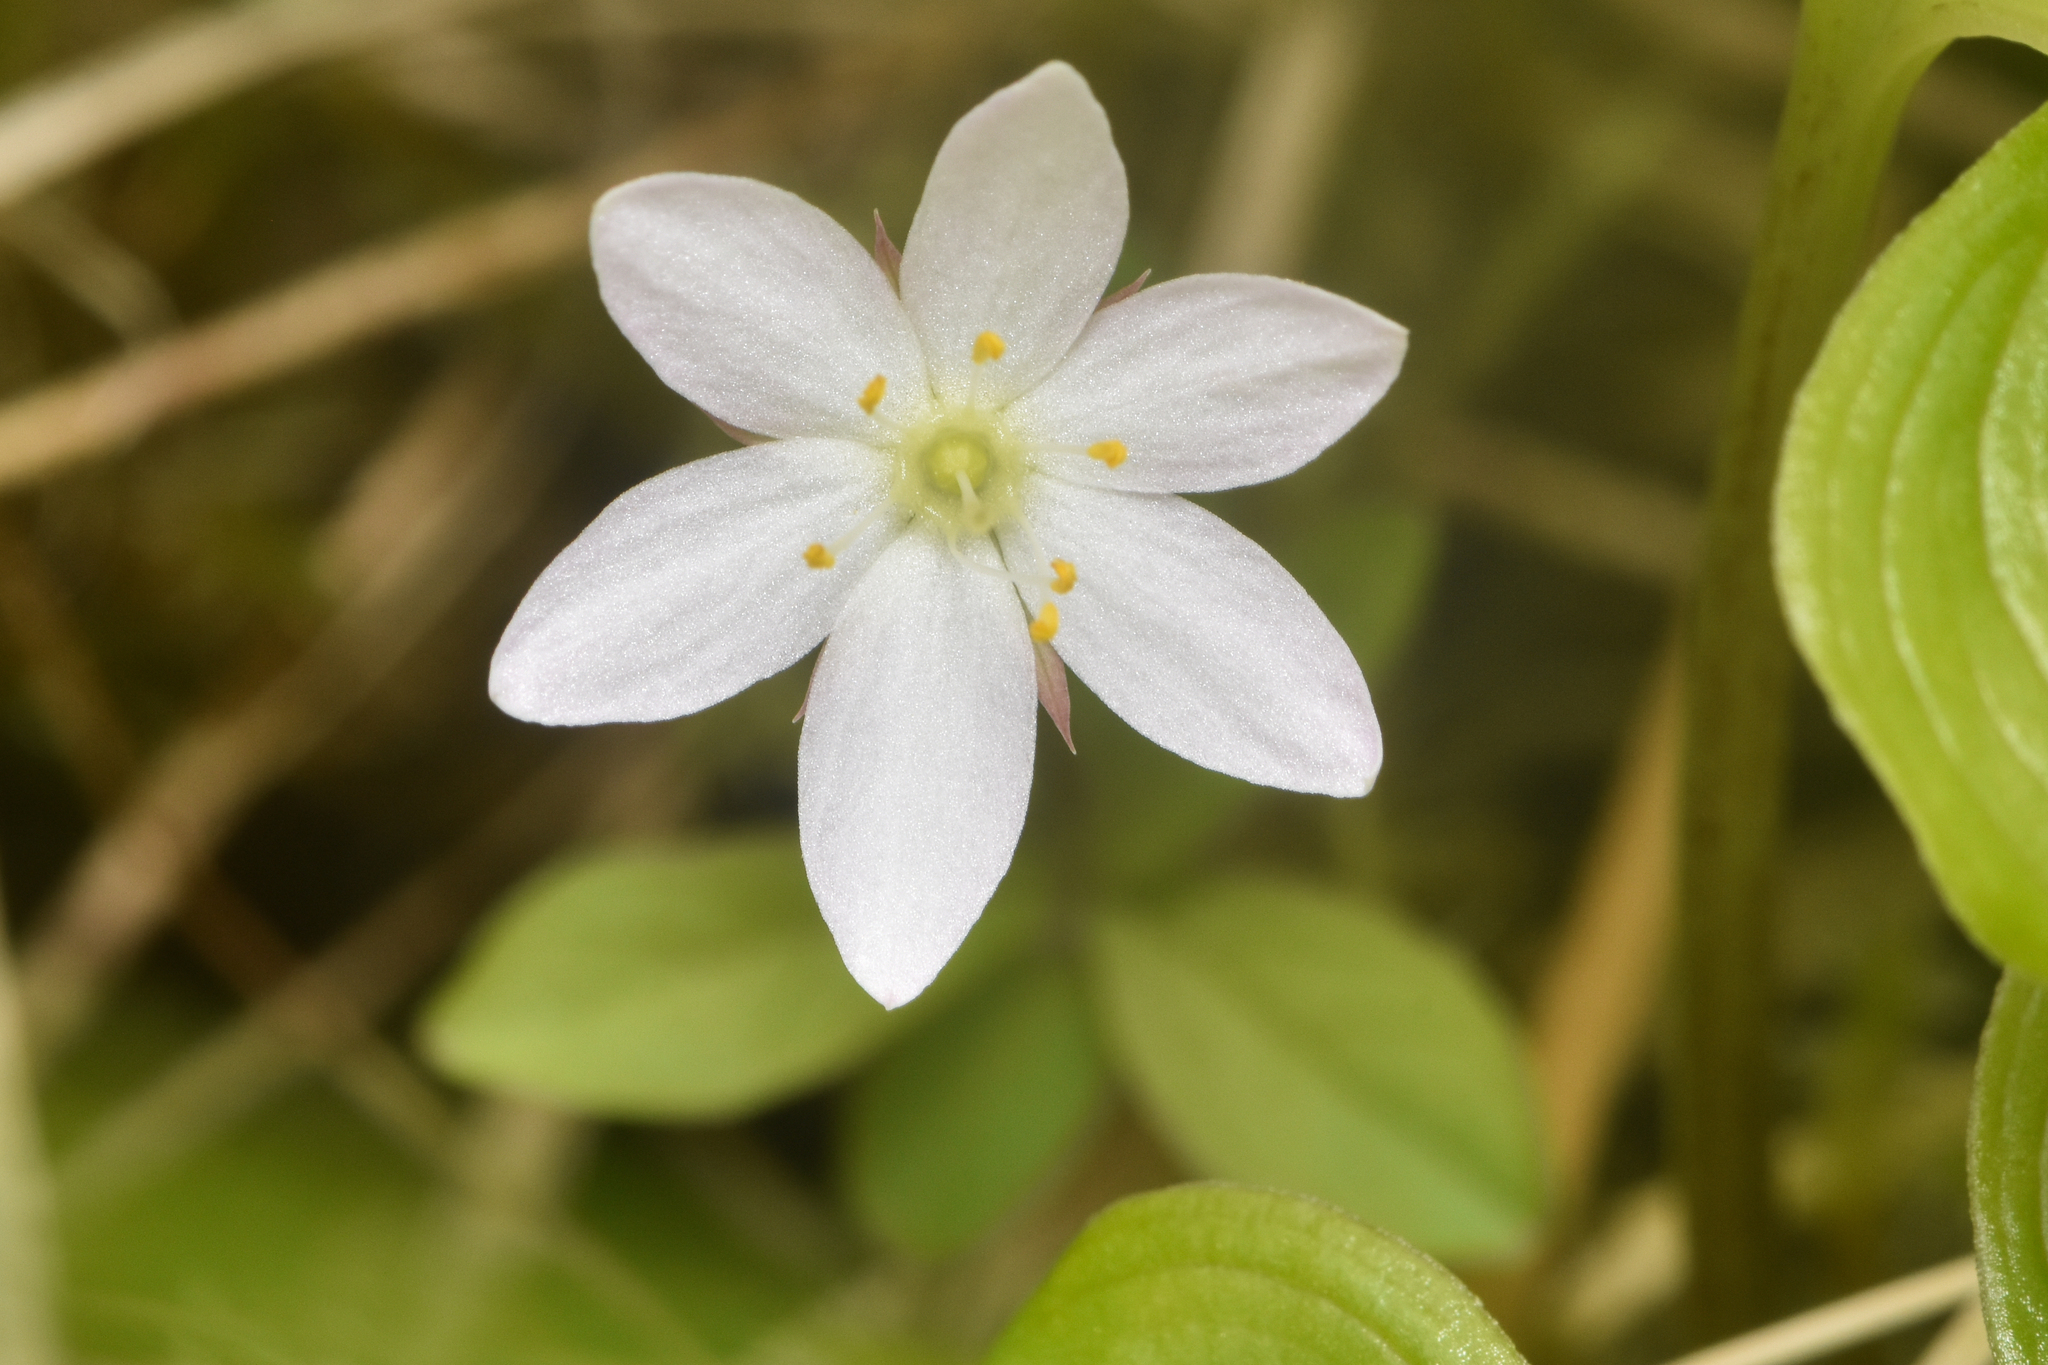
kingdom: Plantae
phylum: Tracheophyta
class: Magnoliopsida
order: Ericales
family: Primulaceae
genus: Lysimachia
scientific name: Lysimachia europaea
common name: Arctic starflower
